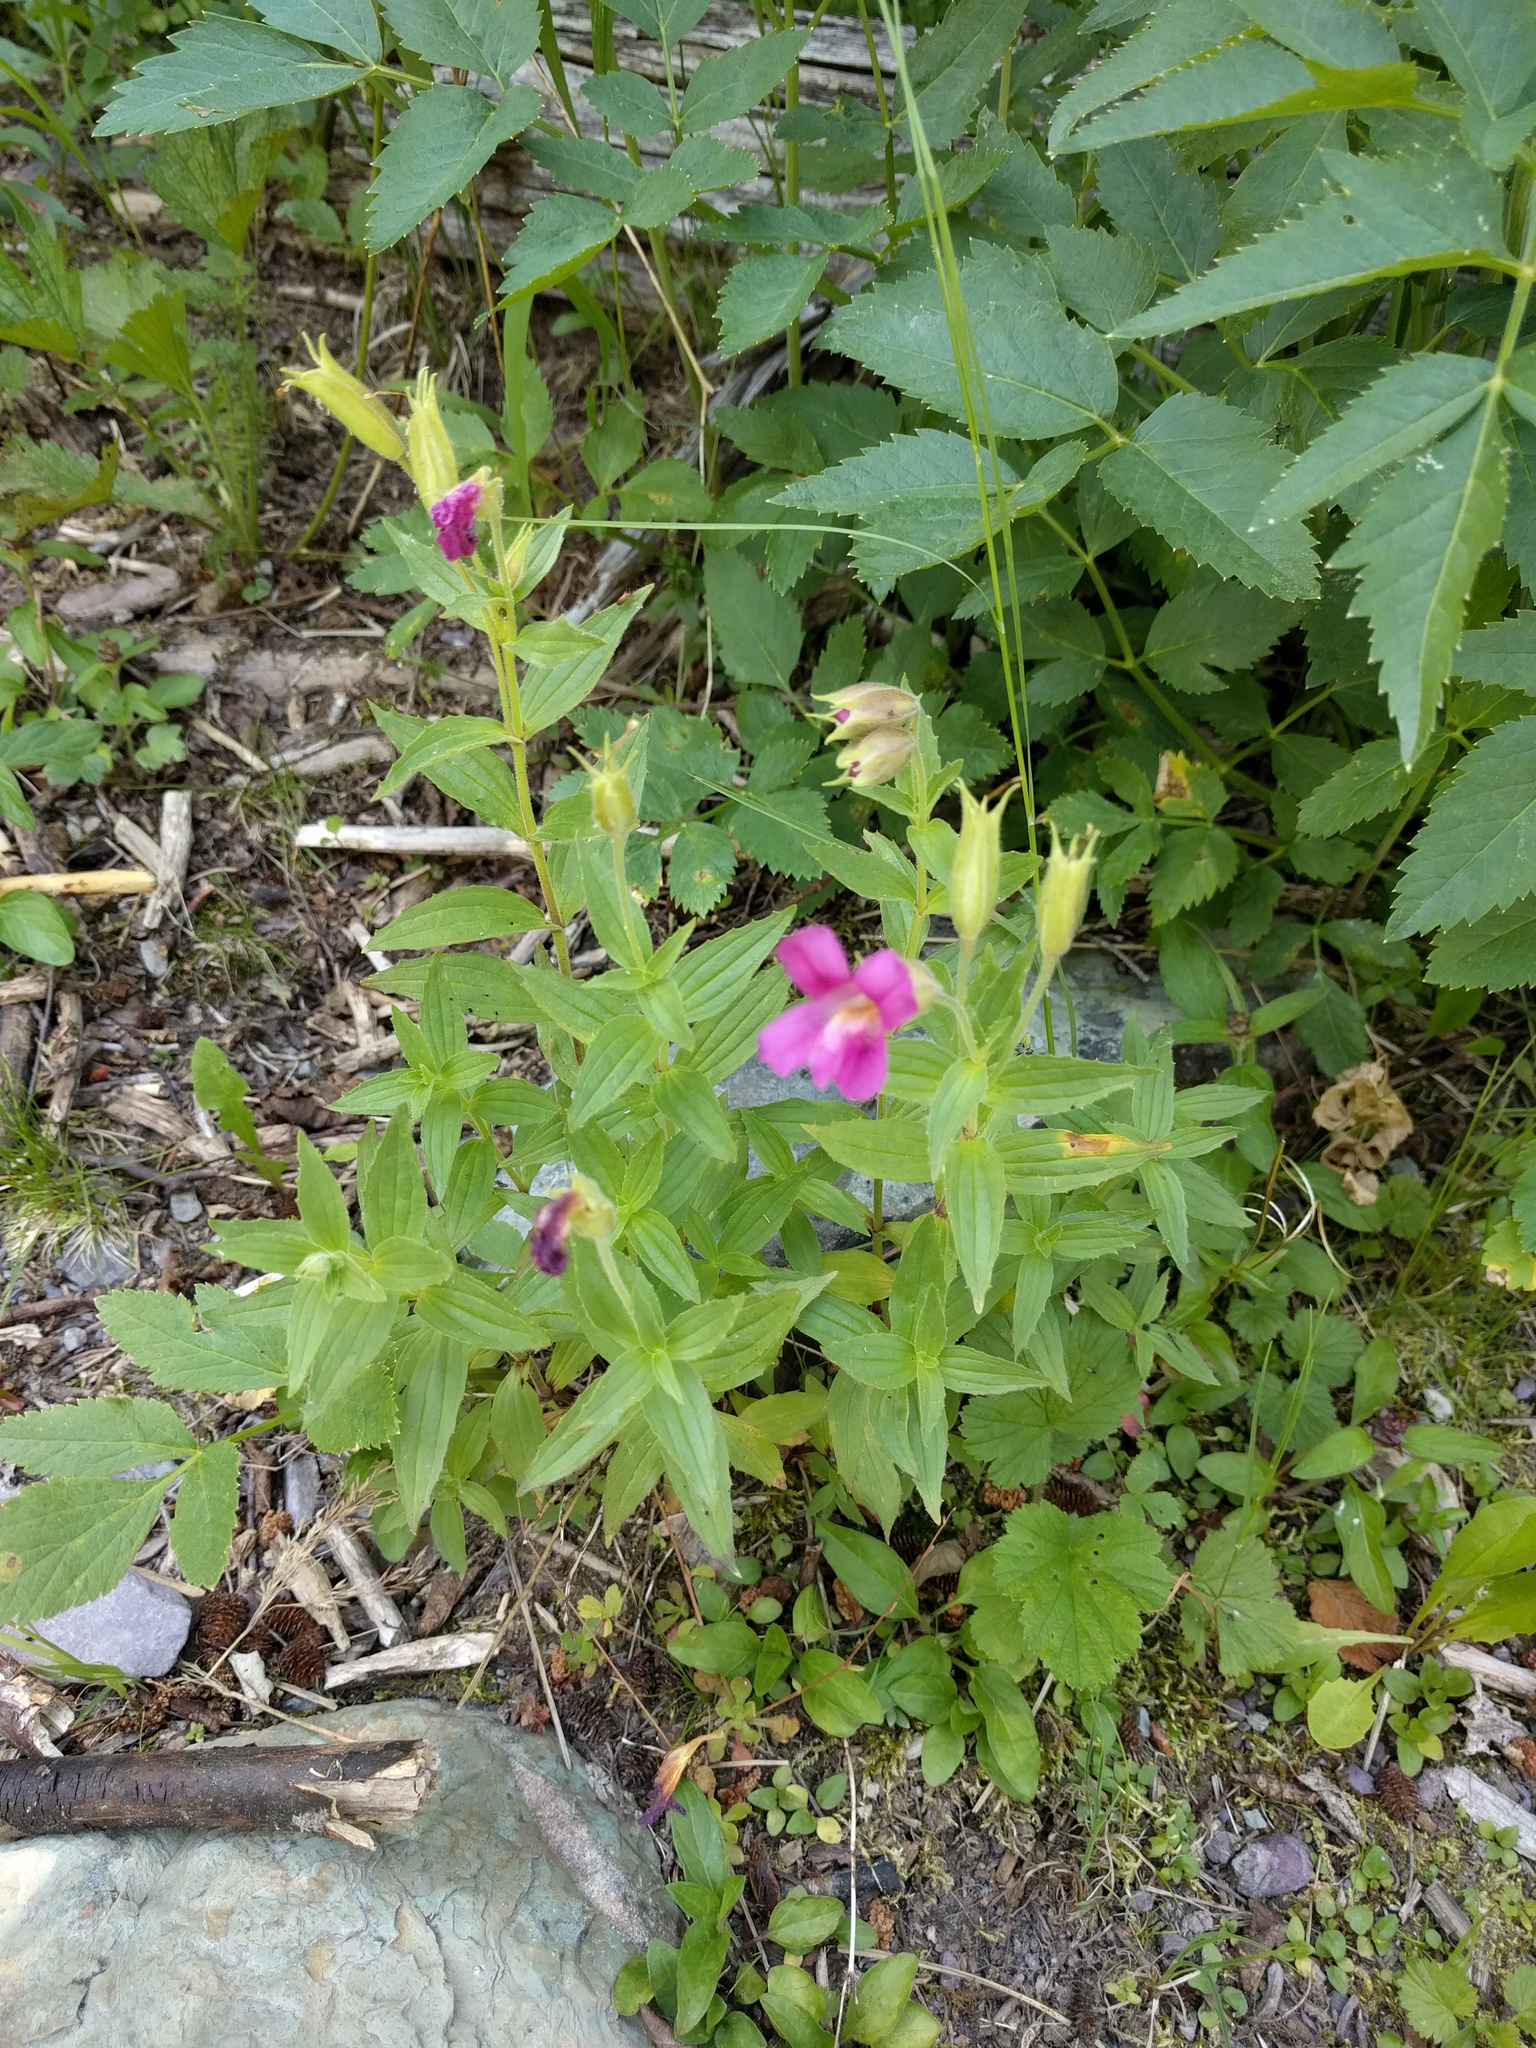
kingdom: Plantae
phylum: Tracheophyta
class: Magnoliopsida
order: Lamiales
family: Phrymaceae
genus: Erythranthe
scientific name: Erythranthe lewisii
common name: Lewis's monkey-flower
